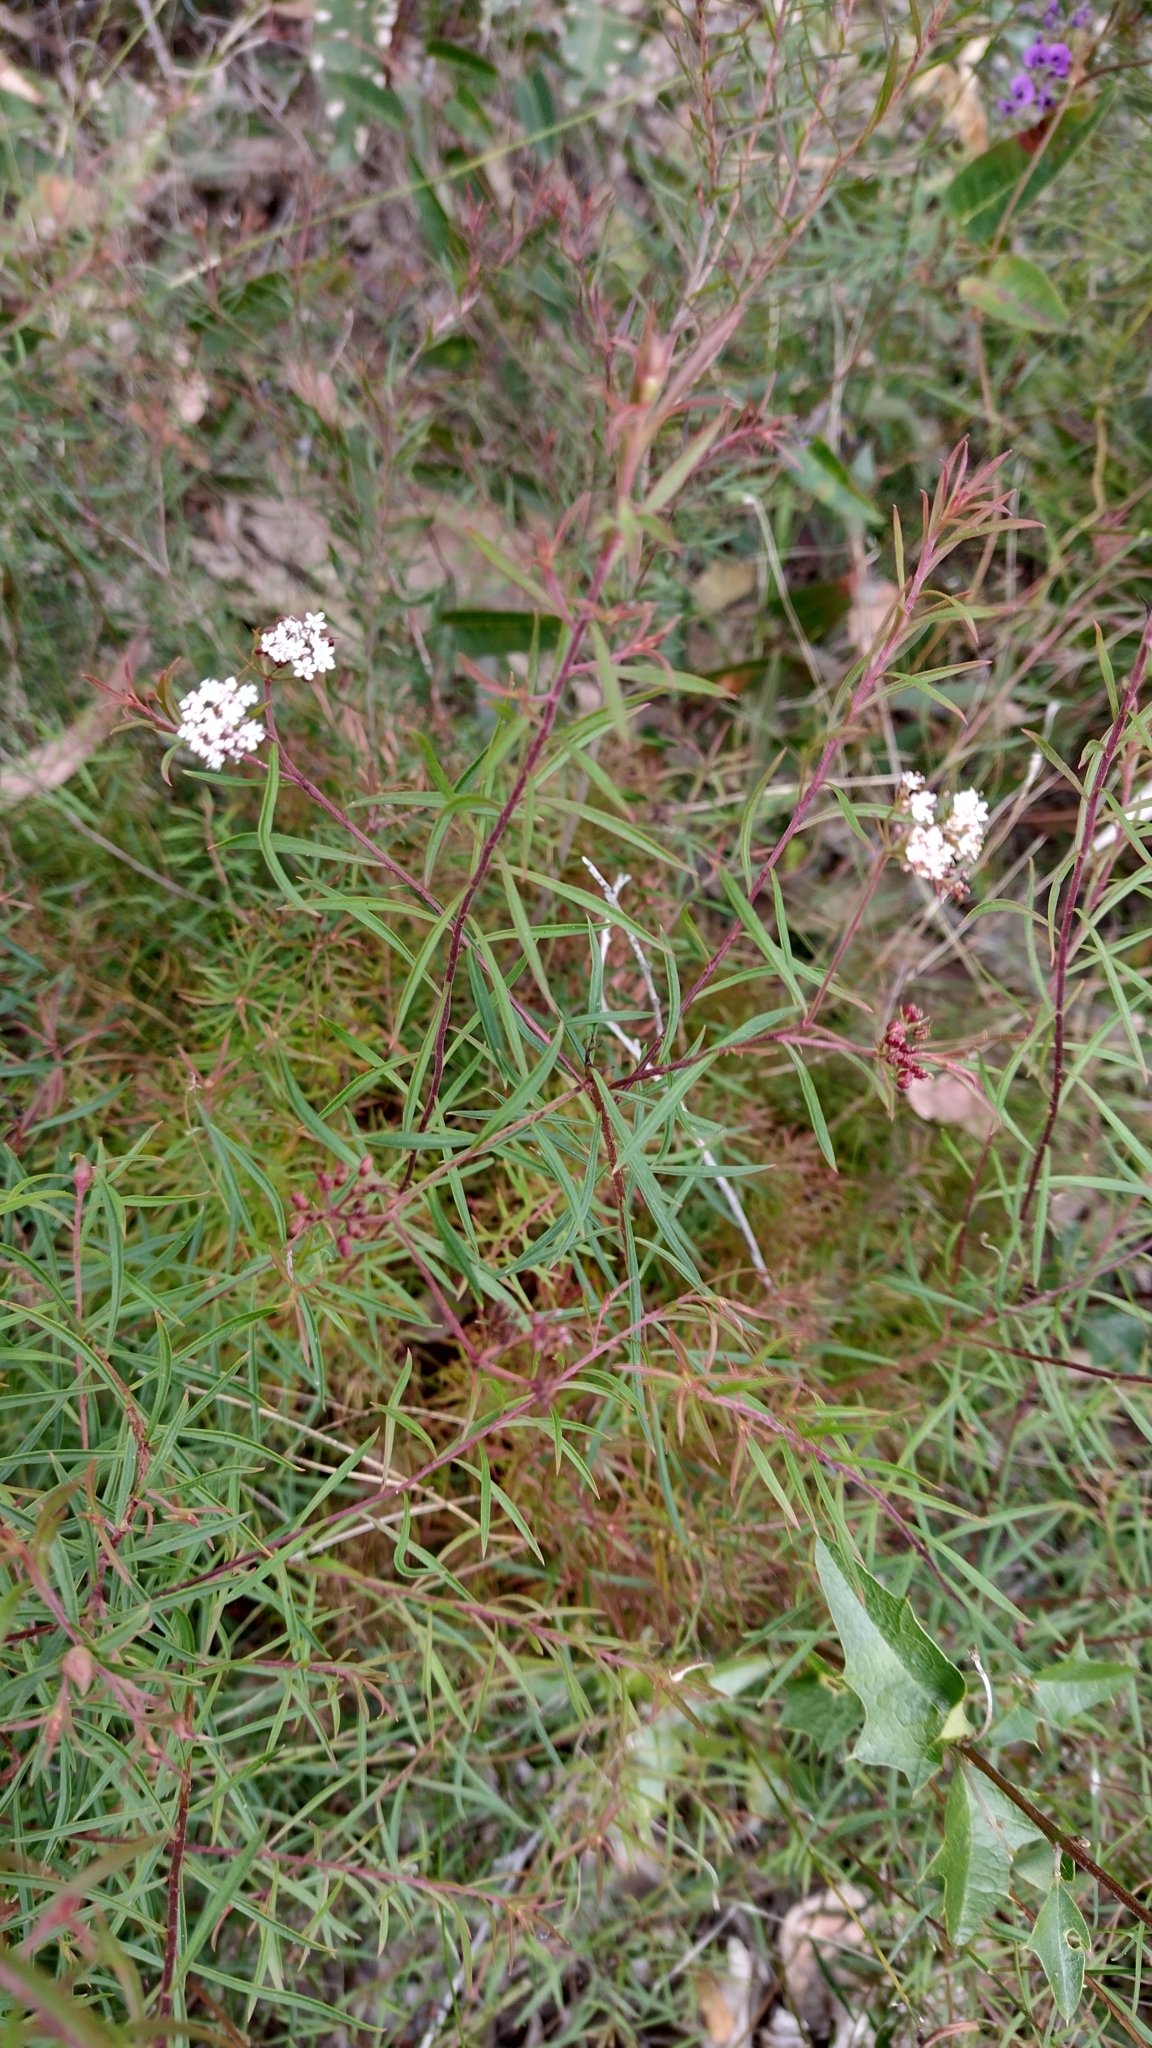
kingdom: Plantae
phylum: Tracheophyta
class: Magnoliopsida
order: Apiales
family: Apiaceae
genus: Platysace
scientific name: Platysace lanceolata
